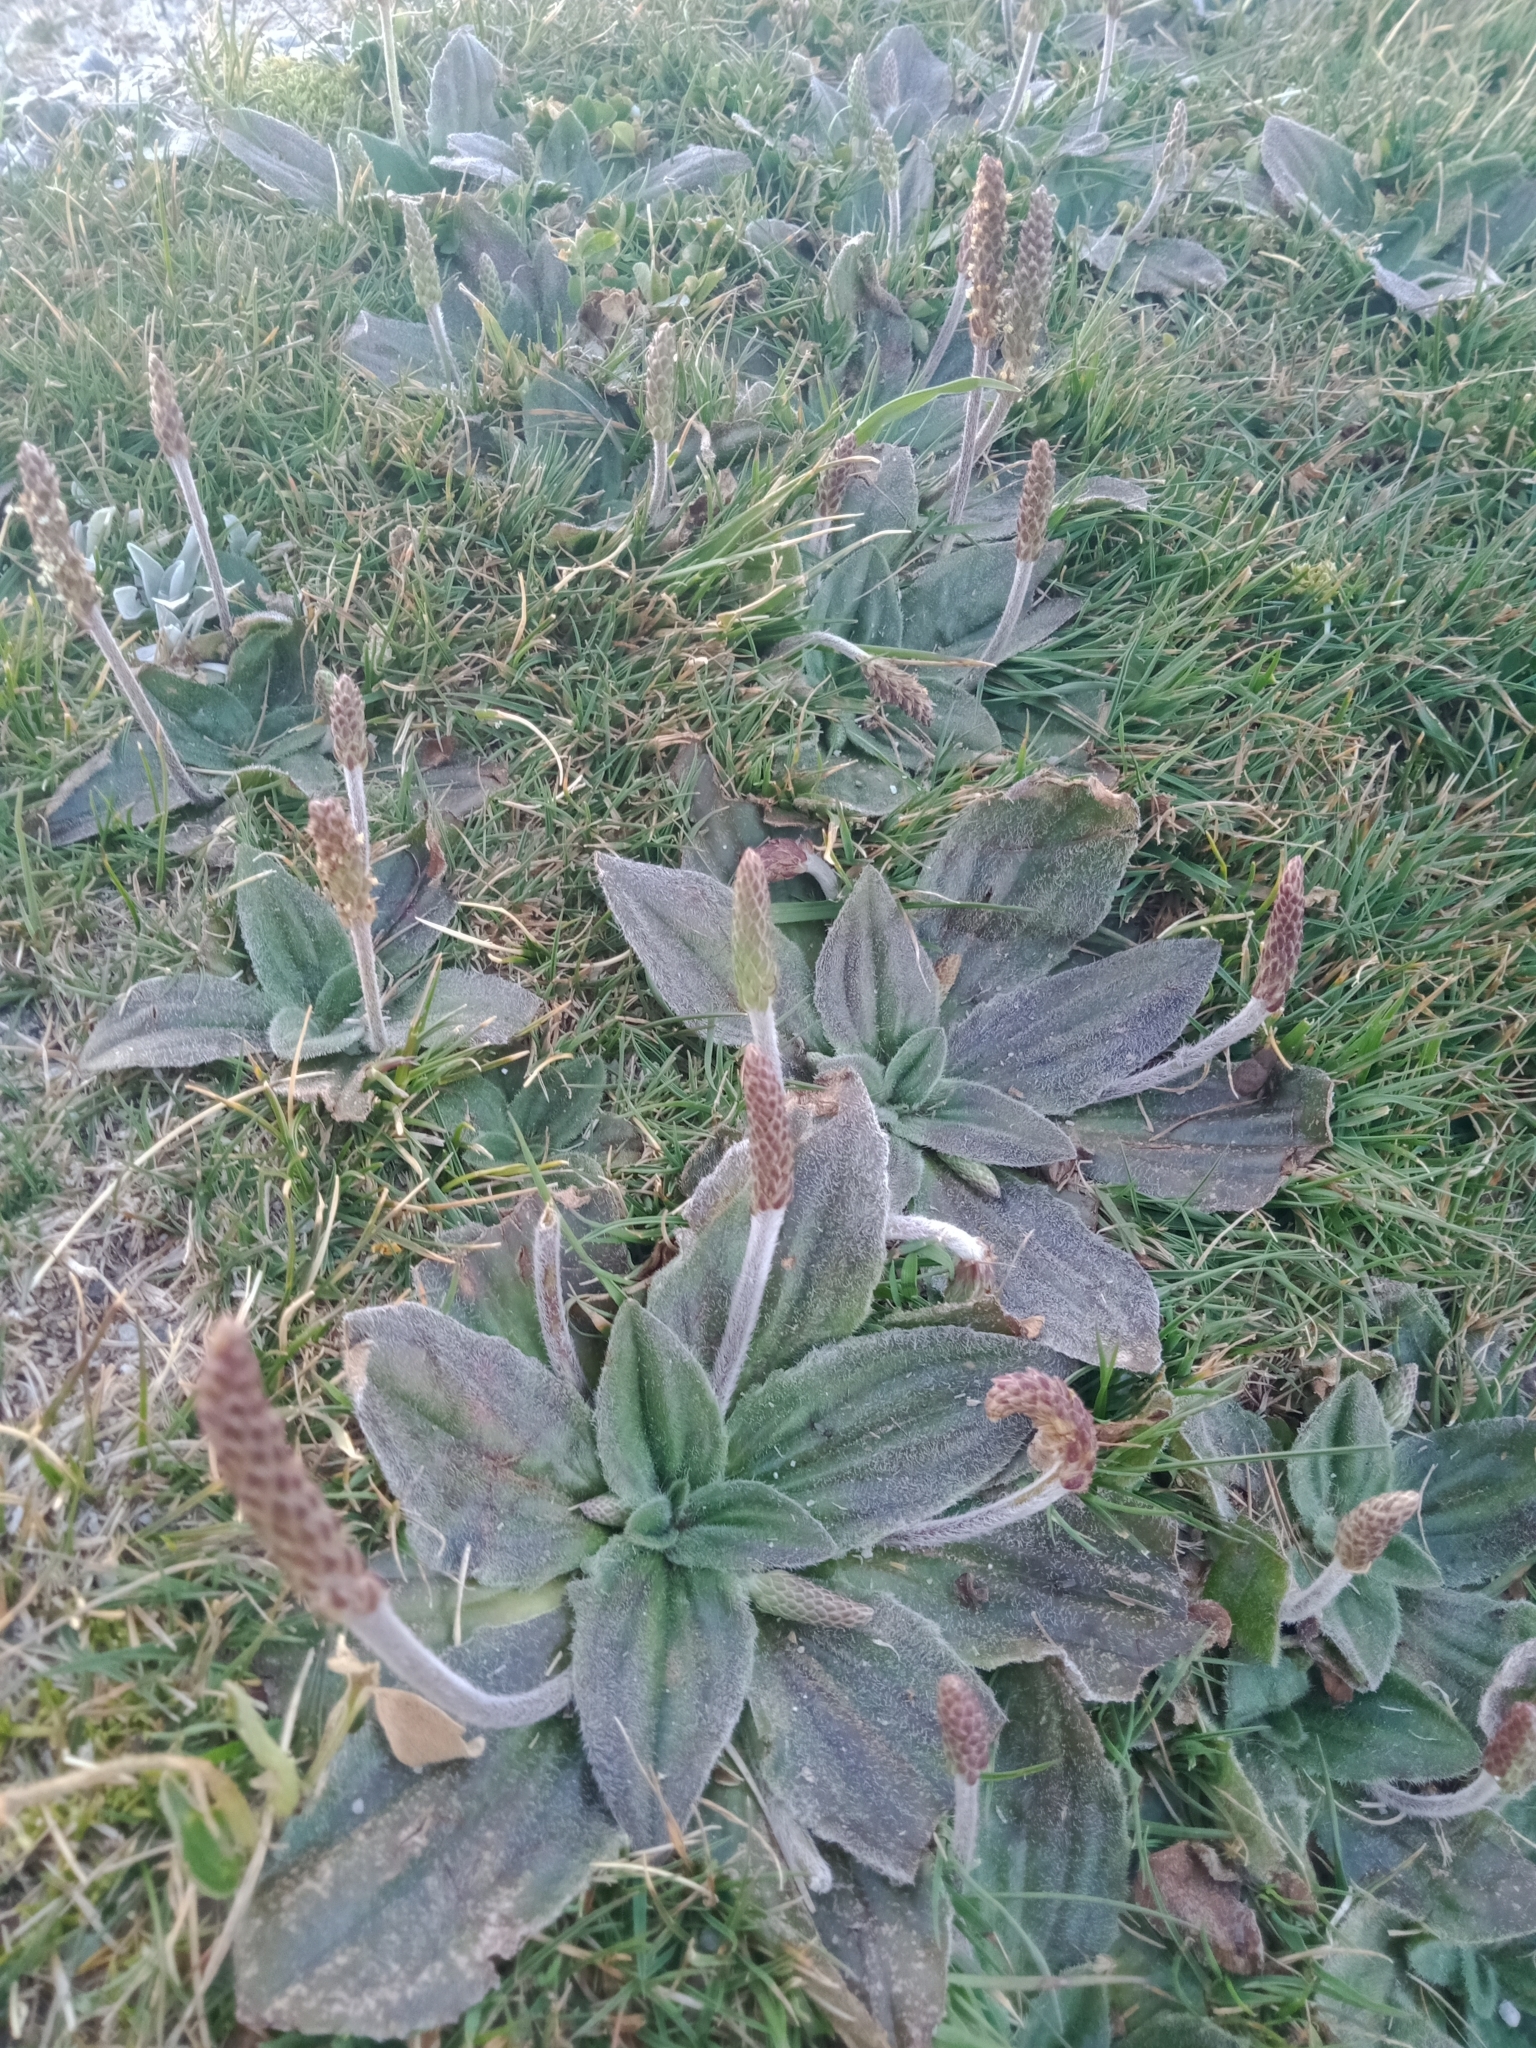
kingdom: Plantae
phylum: Tracheophyta
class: Magnoliopsida
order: Lamiales
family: Plantaginaceae
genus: Plantago
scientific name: Plantago euryphylla
